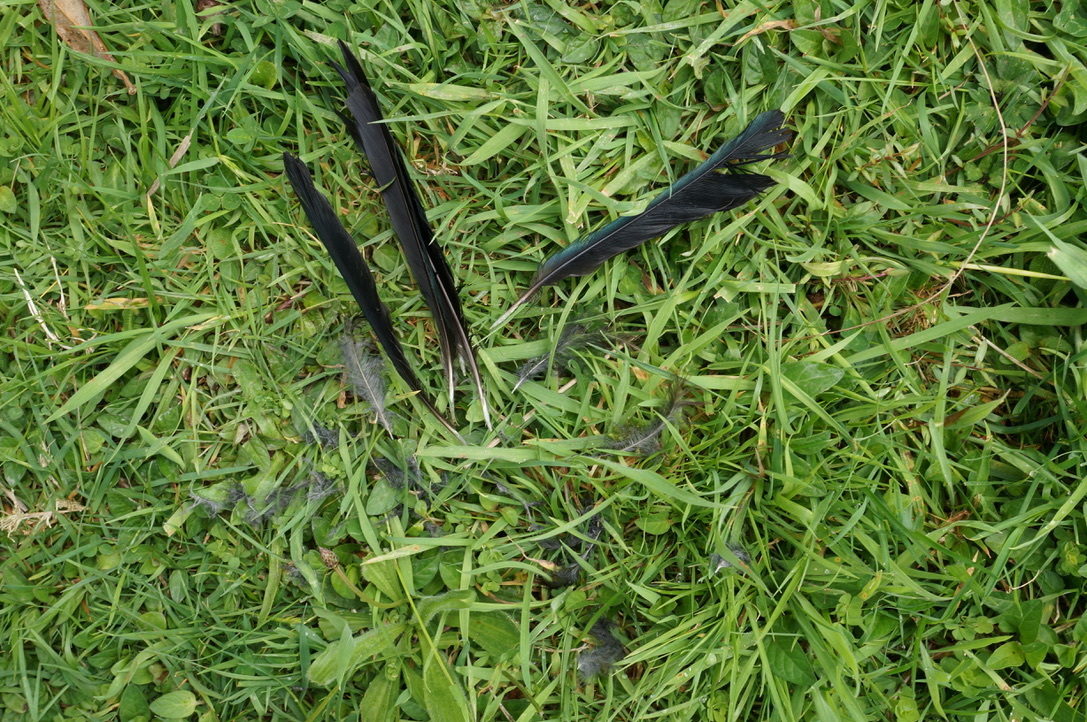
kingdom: Animalia
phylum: Chordata
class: Aves
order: Passeriformes
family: Meliphagidae
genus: Prosthemadera
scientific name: Prosthemadera novaeseelandiae
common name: Tui
